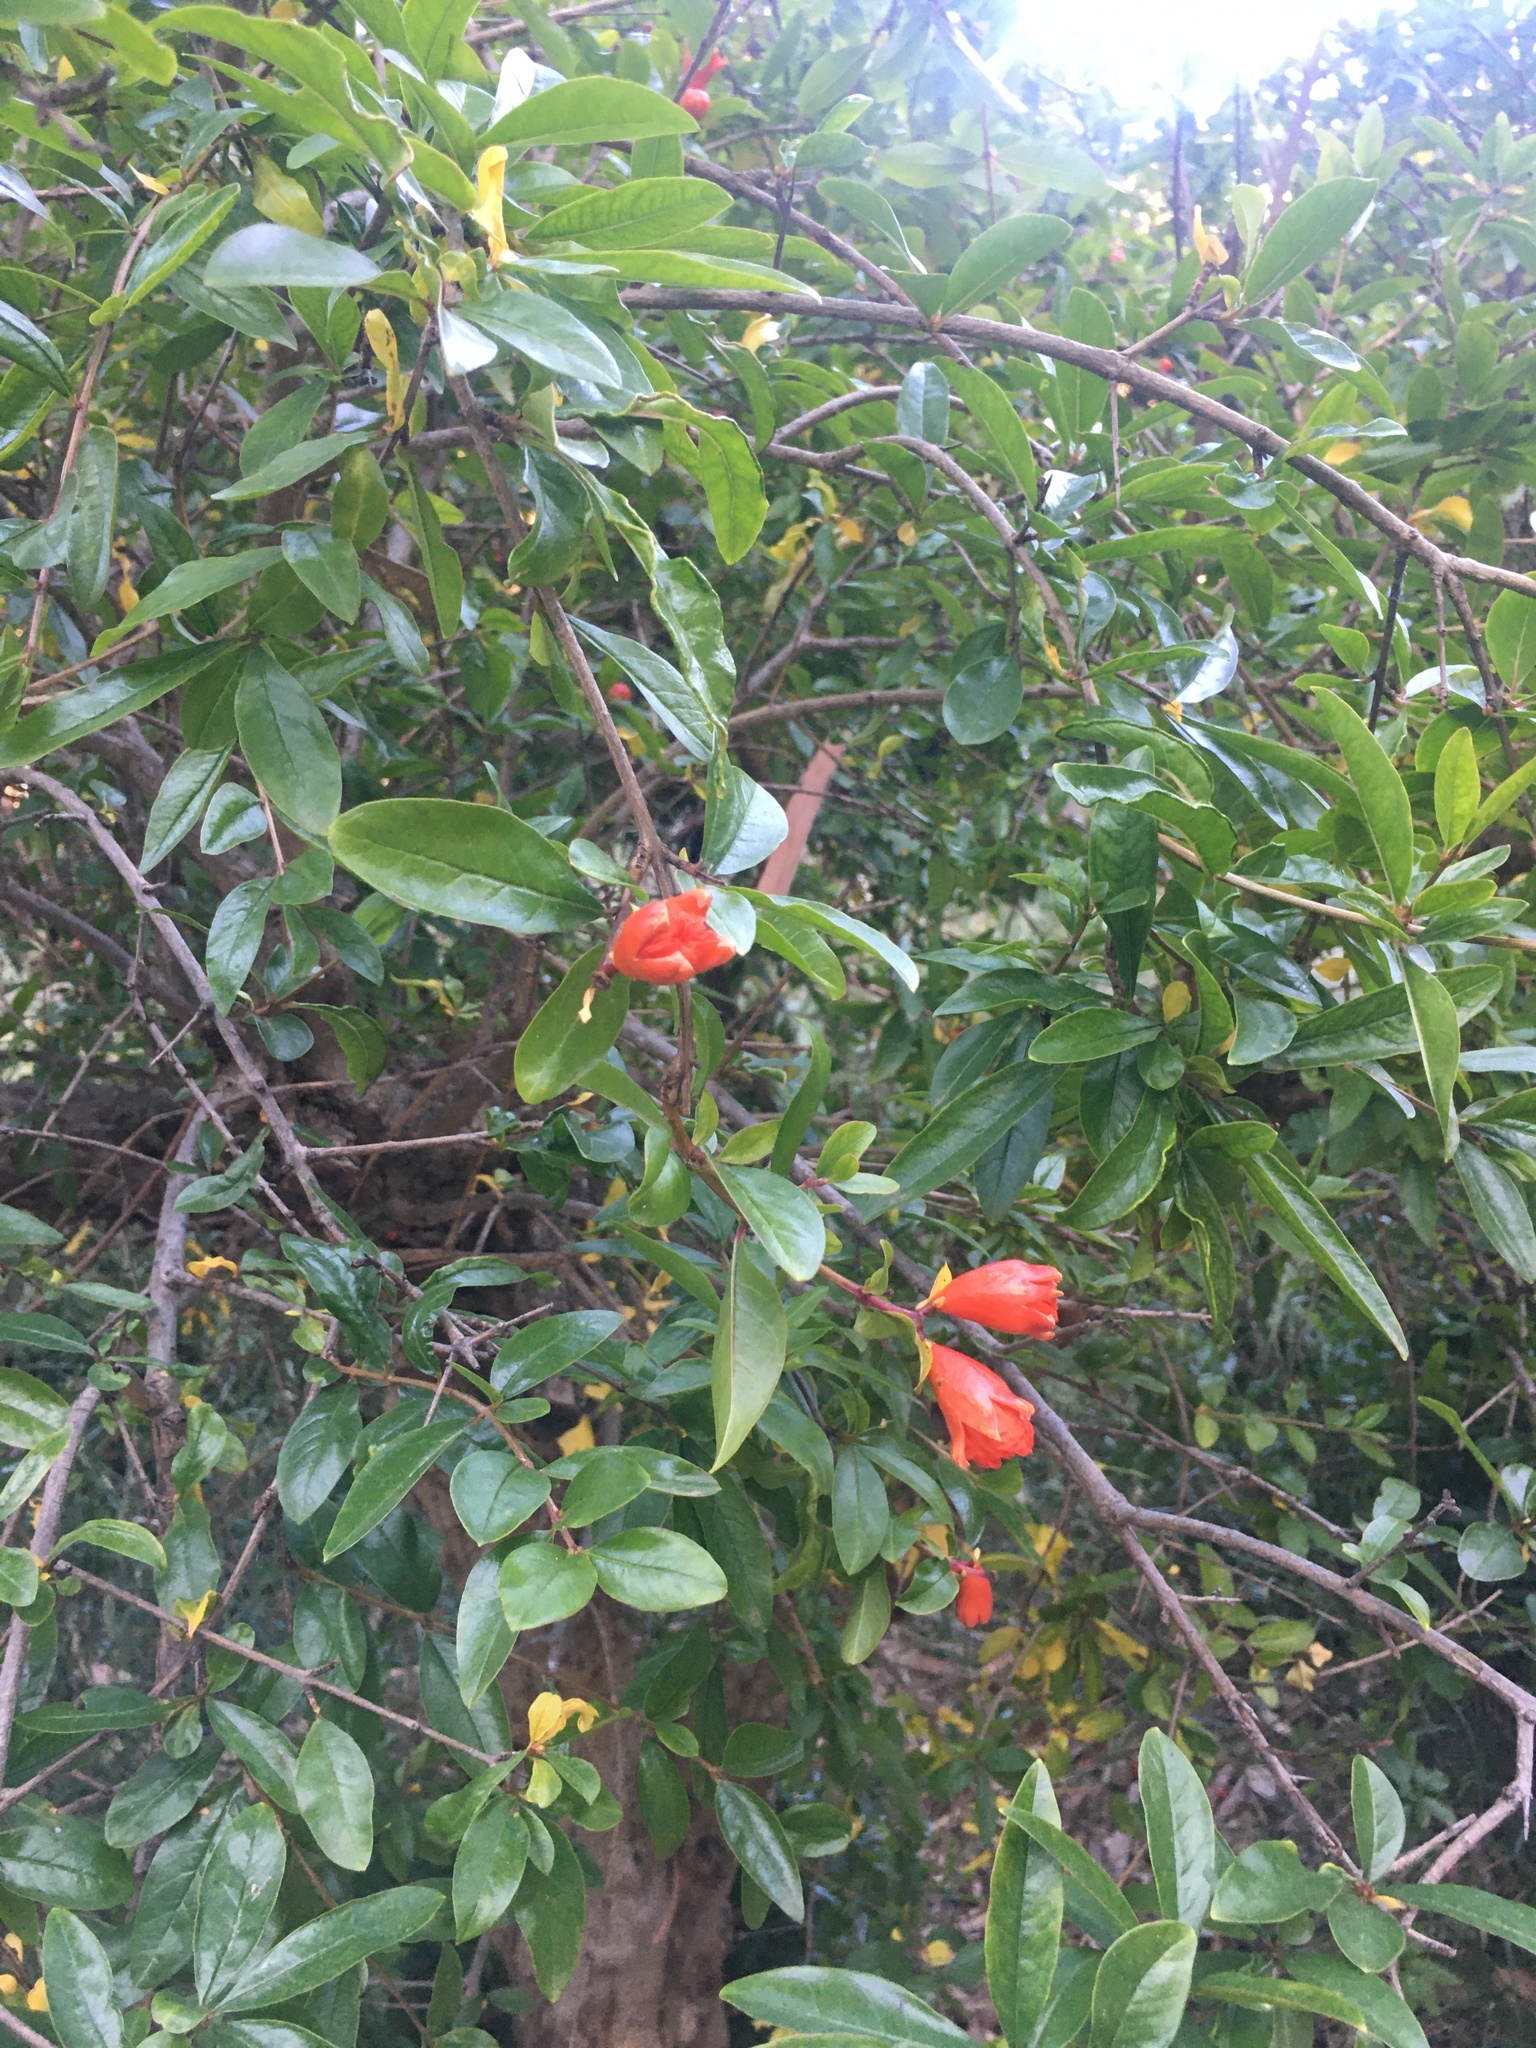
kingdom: Plantae
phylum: Tracheophyta
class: Magnoliopsida
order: Myrtales
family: Lythraceae
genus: Punica
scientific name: Punica granatum
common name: Pomegranate
